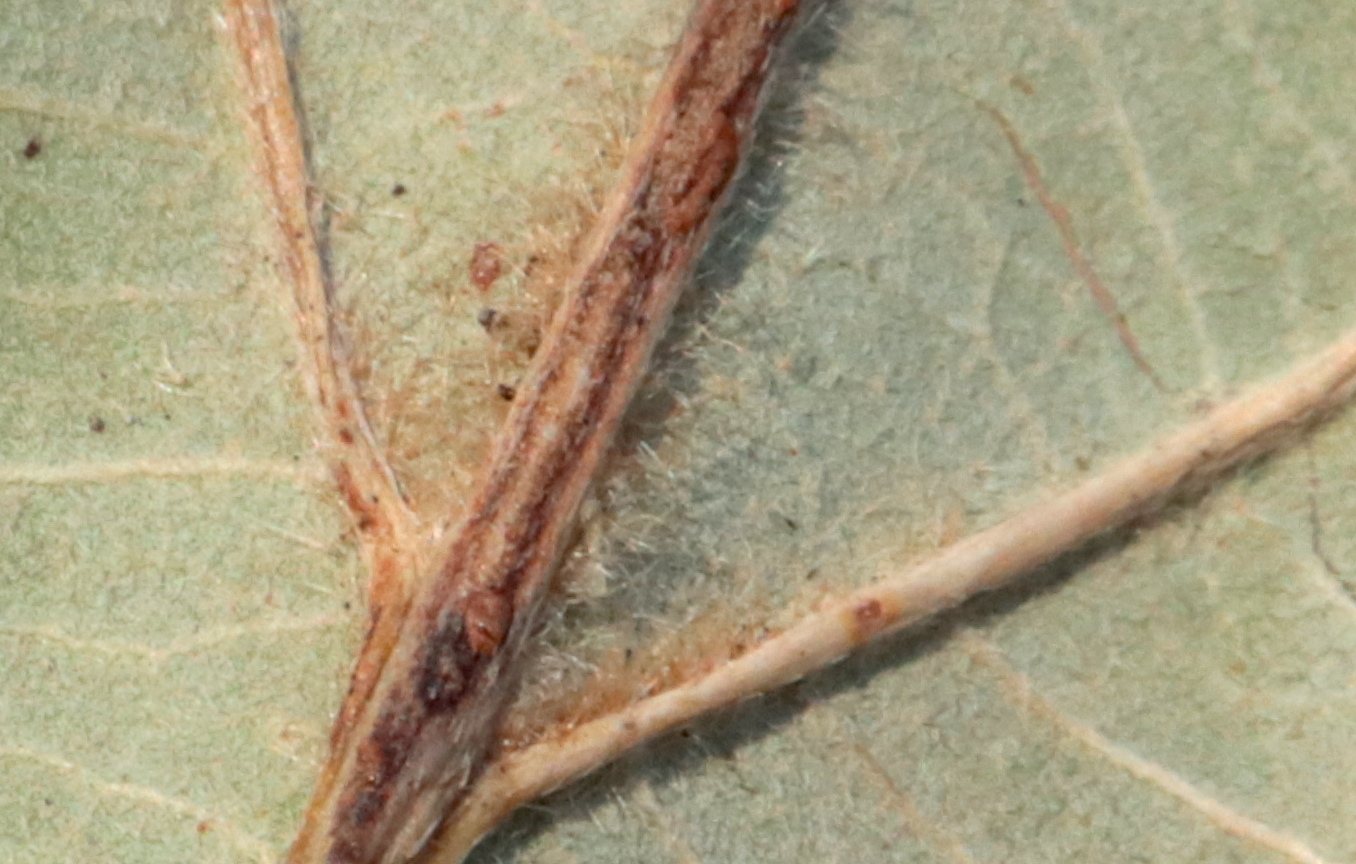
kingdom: Plantae
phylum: Tracheophyta
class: Magnoliopsida
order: Fagales
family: Fagaceae
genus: Quercus
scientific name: Quercus montana
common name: Chestnut oak
